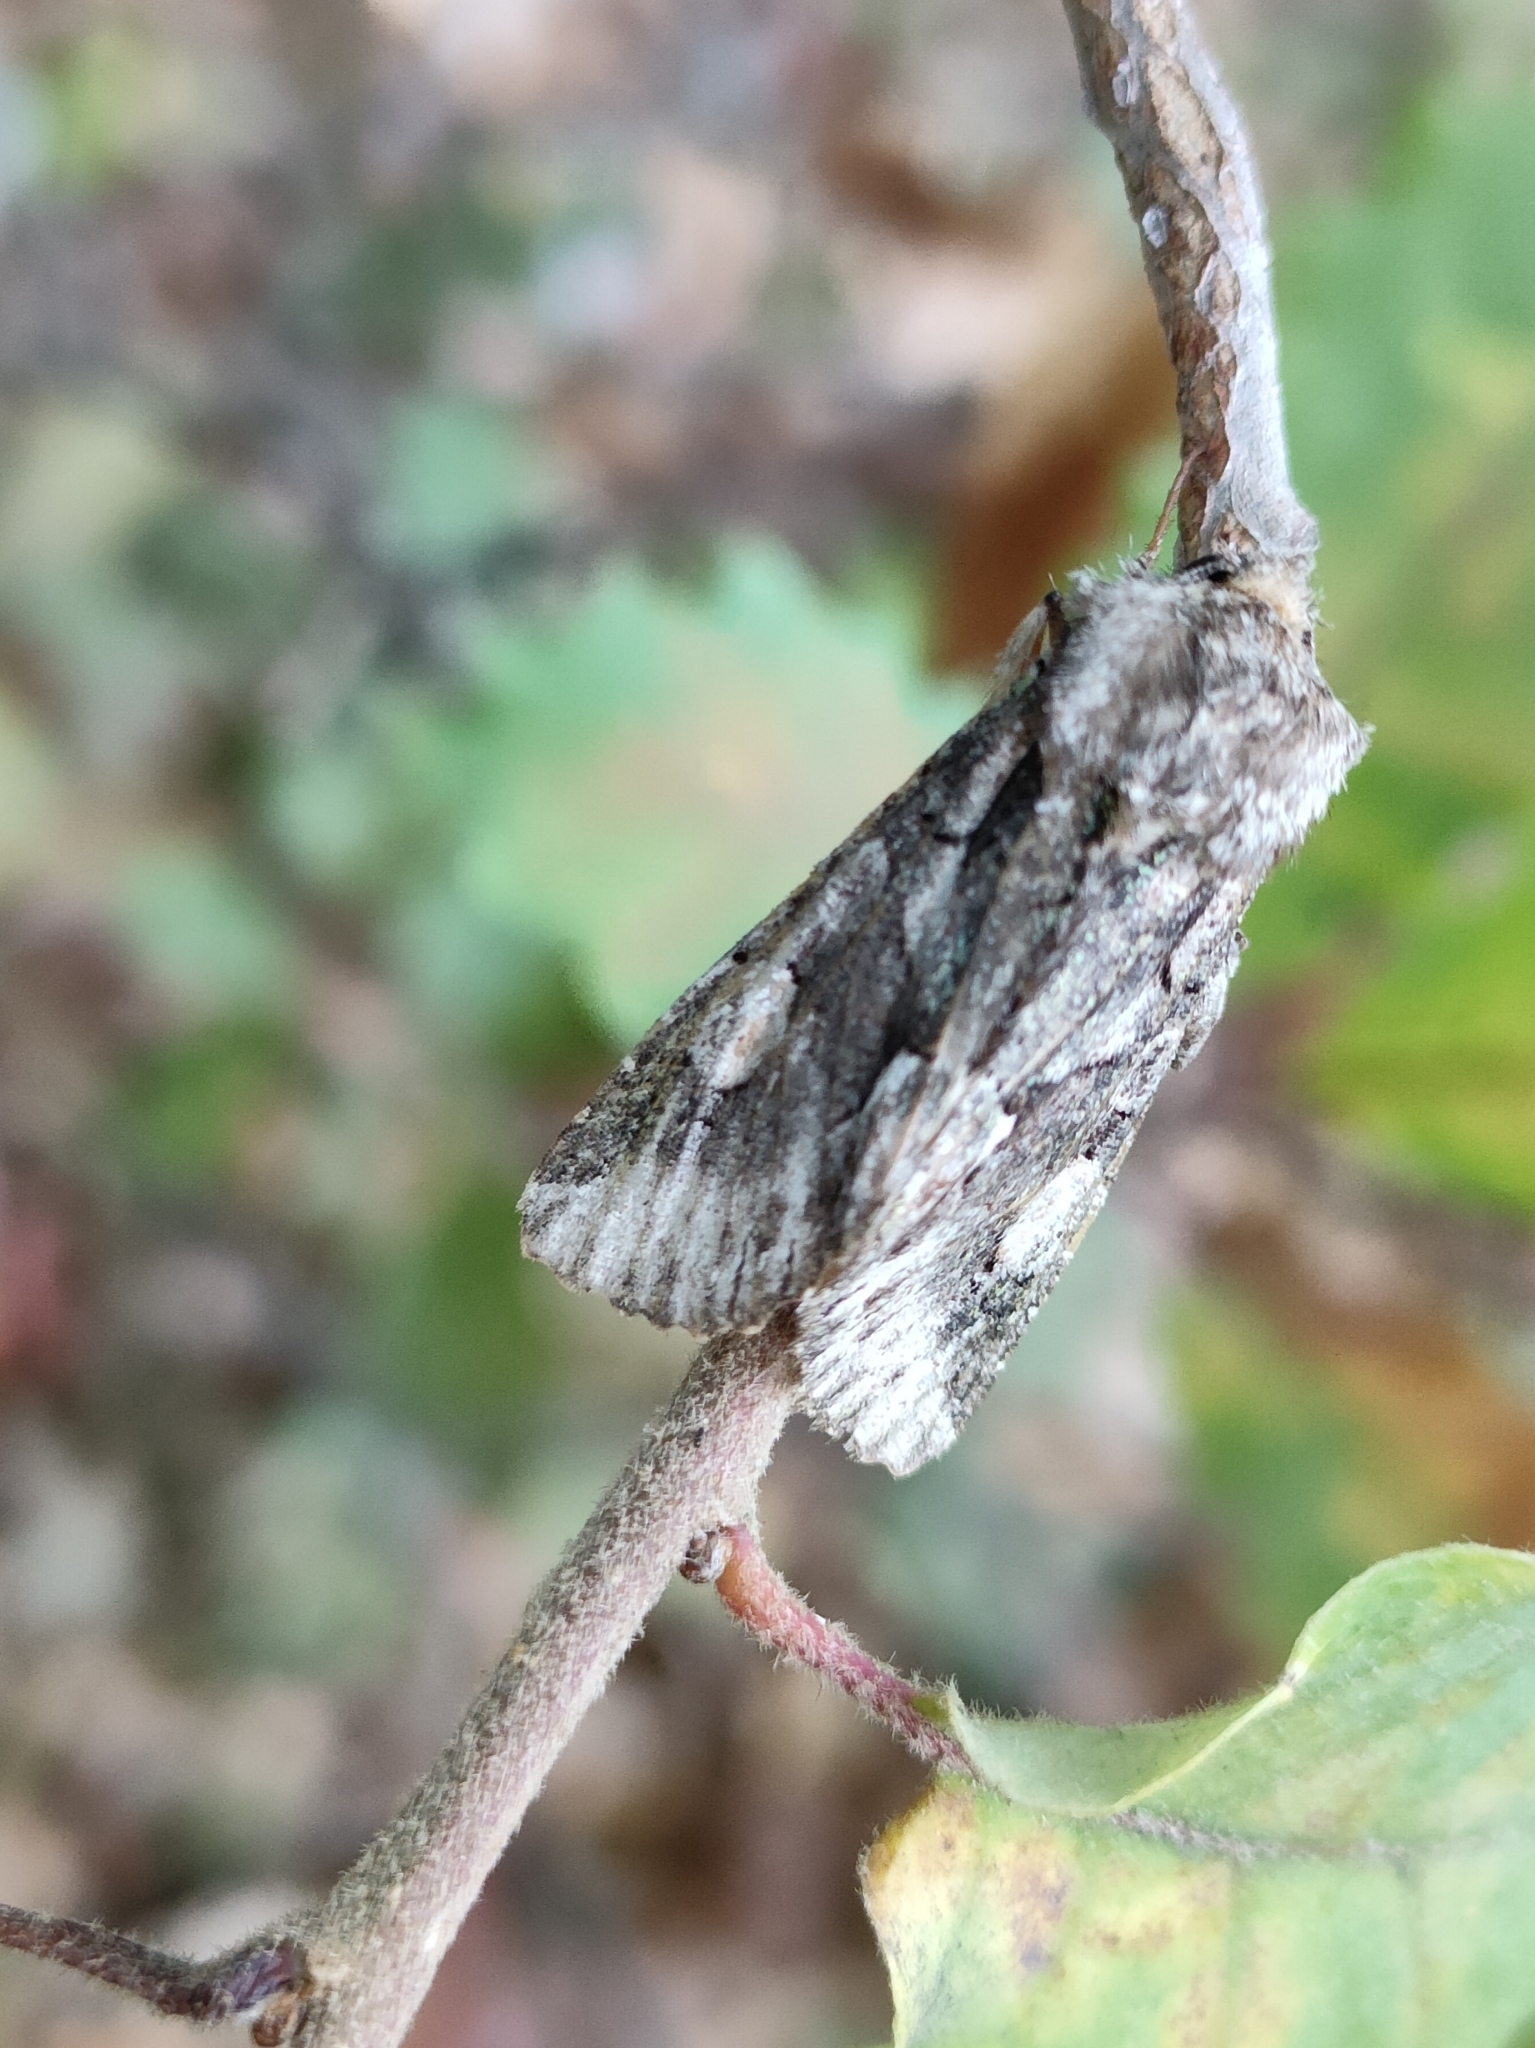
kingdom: Animalia
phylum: Arthropoda
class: Insecta
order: Lepidoptera
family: Noctuidae
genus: Allophyes
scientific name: Allophyes alfaroi
